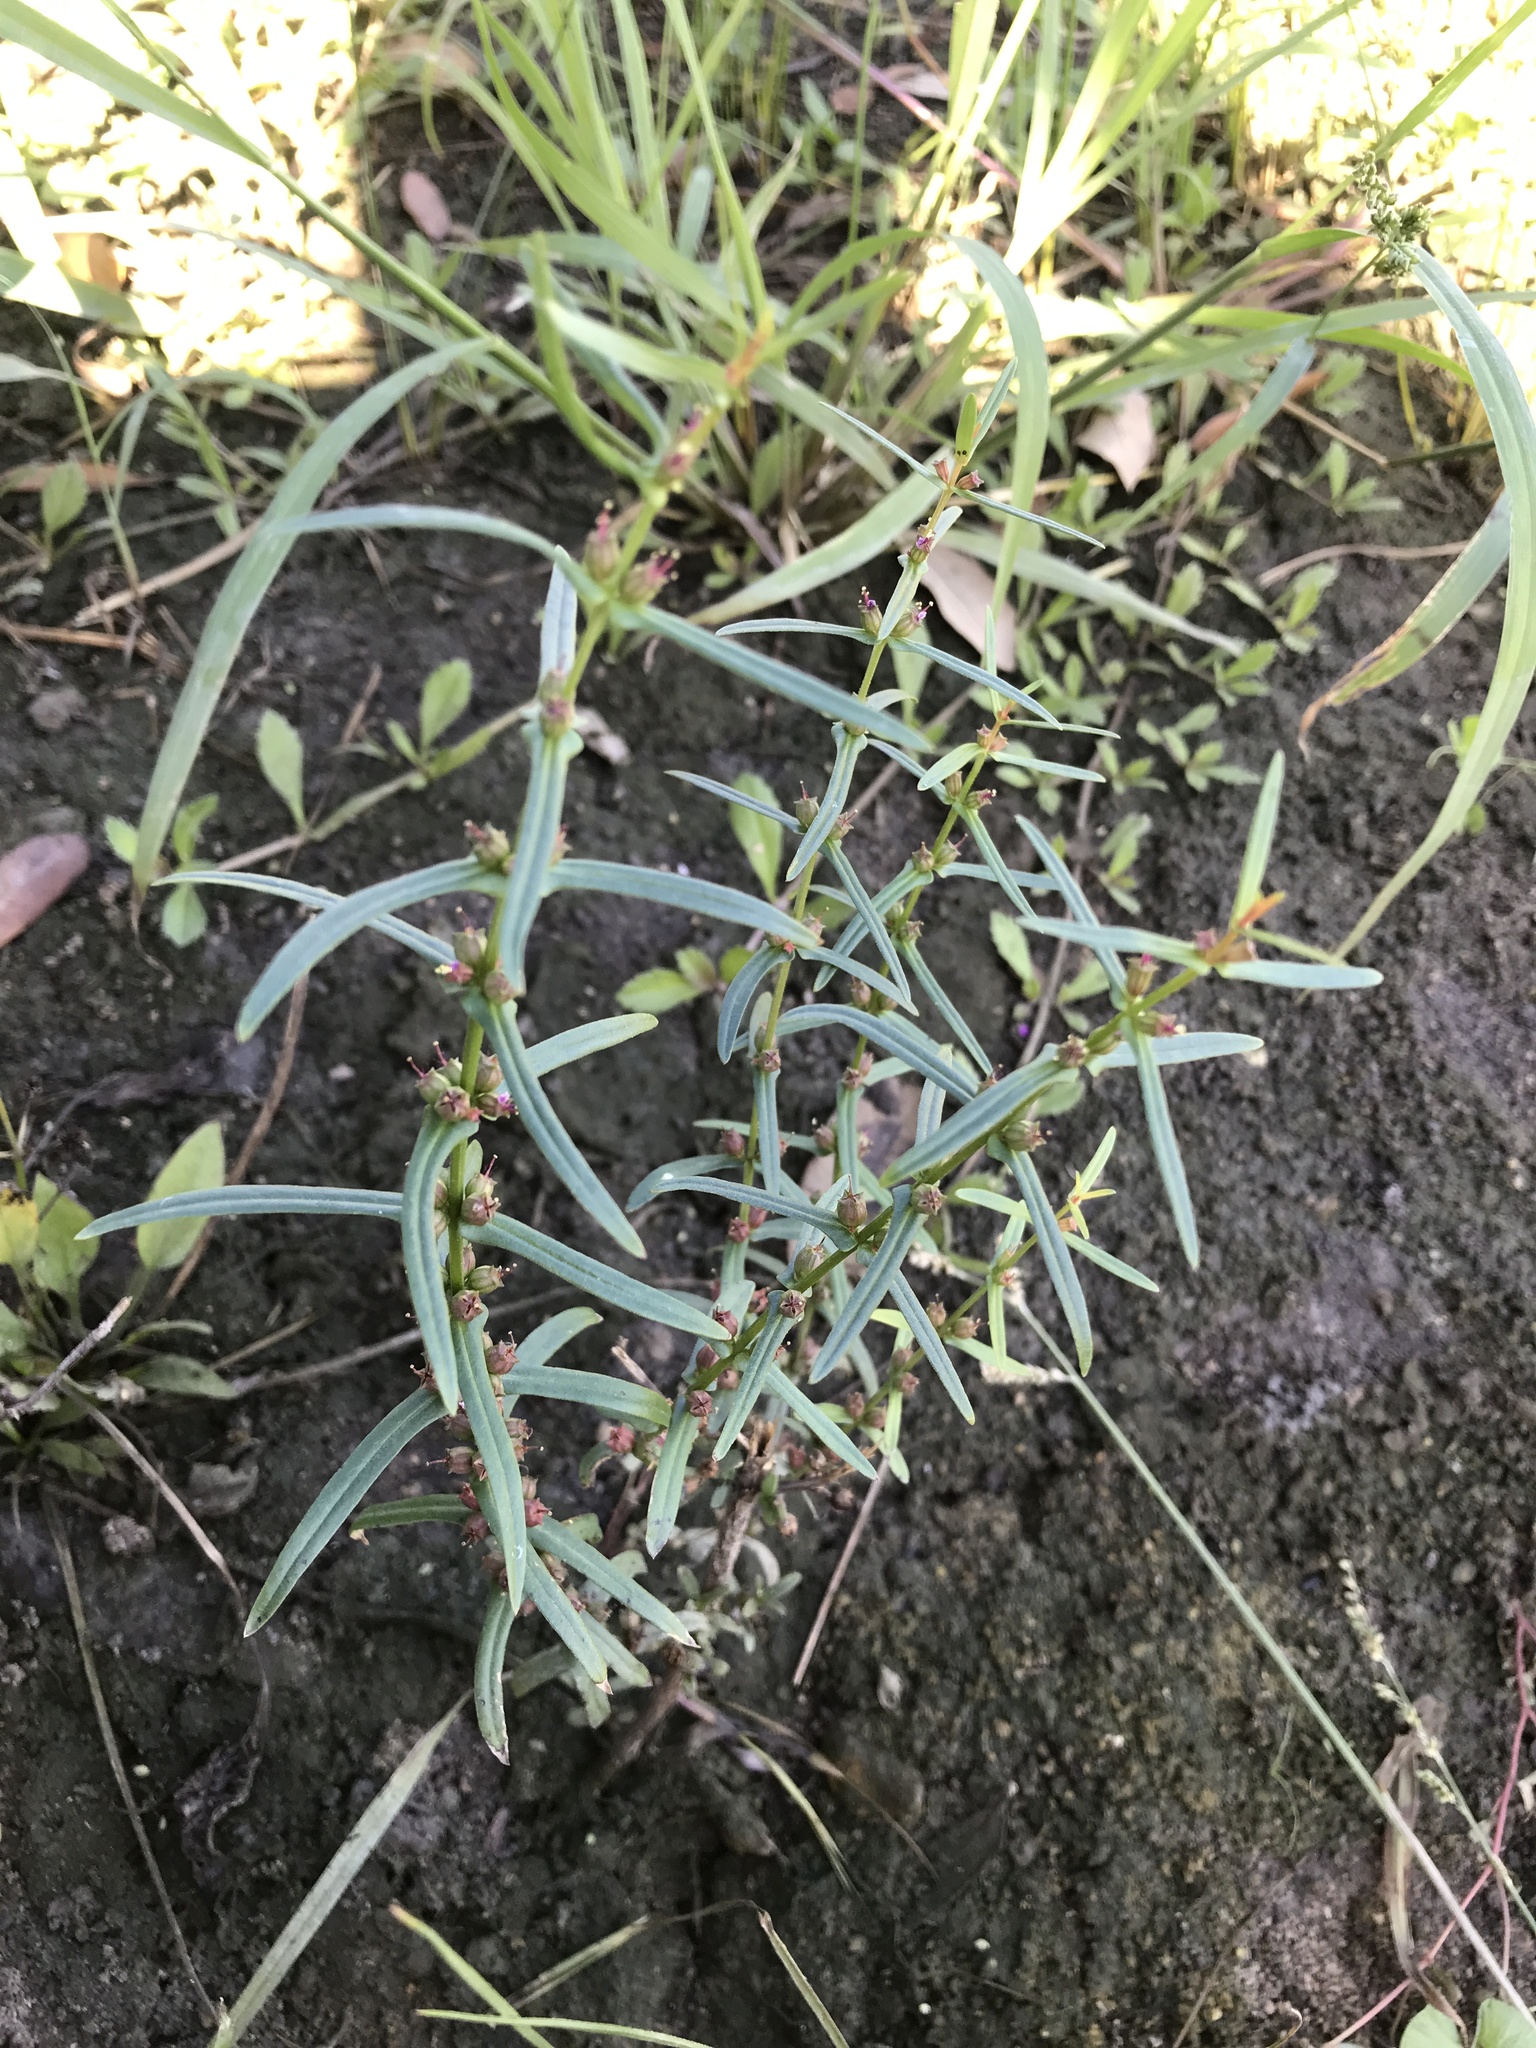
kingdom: Plantae
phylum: Tracheophyta
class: Magnoliopsida
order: Myrtales
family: Lythraceae
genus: Ammannia
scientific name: Ammannia coccinea
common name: Valley redstem
